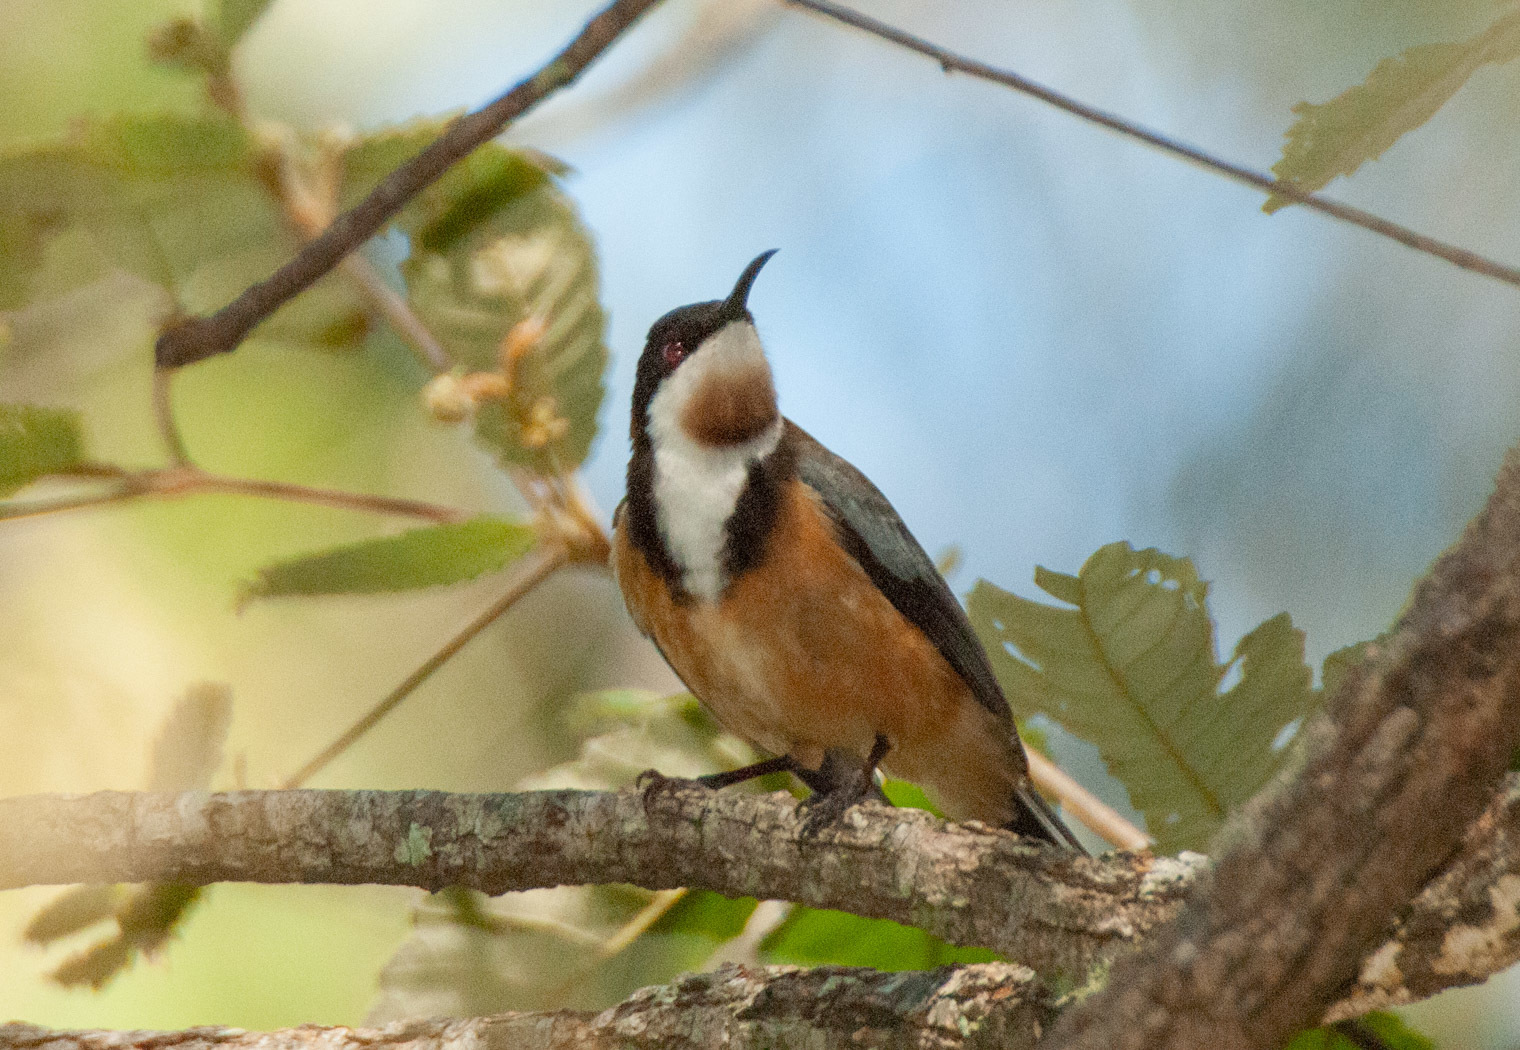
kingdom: Animalia
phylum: Chordata
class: Aves
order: Passeriformes
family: Meliphagidae
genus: Acanthorhynchus
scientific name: Acanthorhynchus tenuirostris
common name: Eastern spinebill
